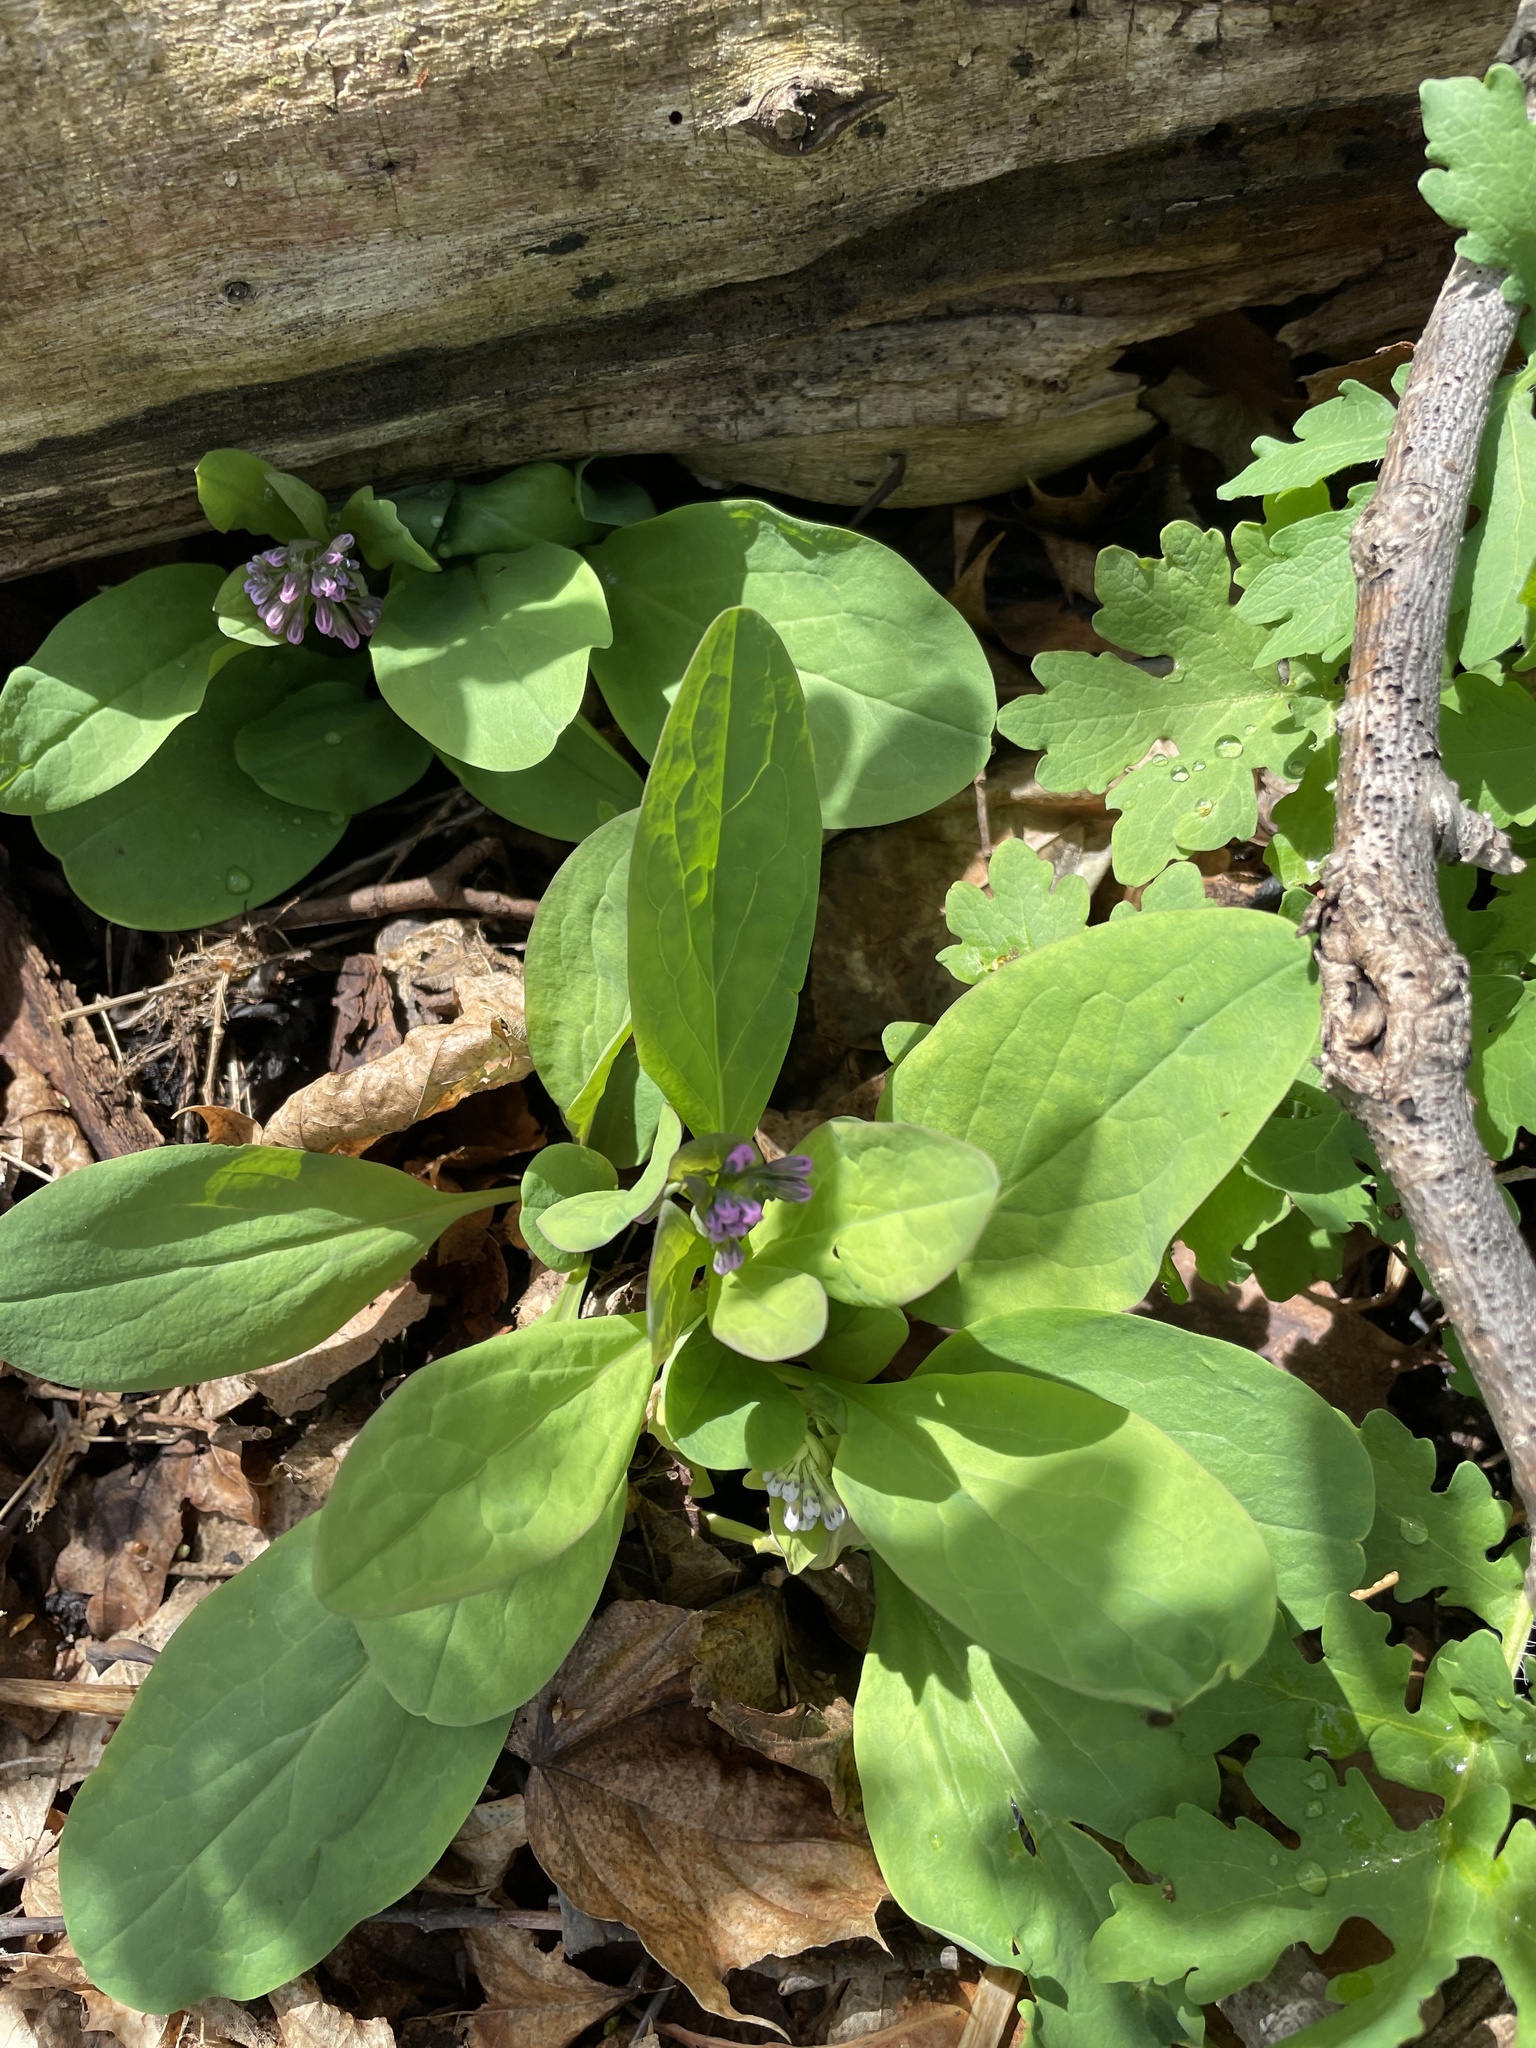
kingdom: Plantae
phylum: Tracheophyta
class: Magnoliopsida
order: Boraginales
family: Boraginaceae
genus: Mertensia
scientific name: Mertensia virginica
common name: Virginia bluebells
